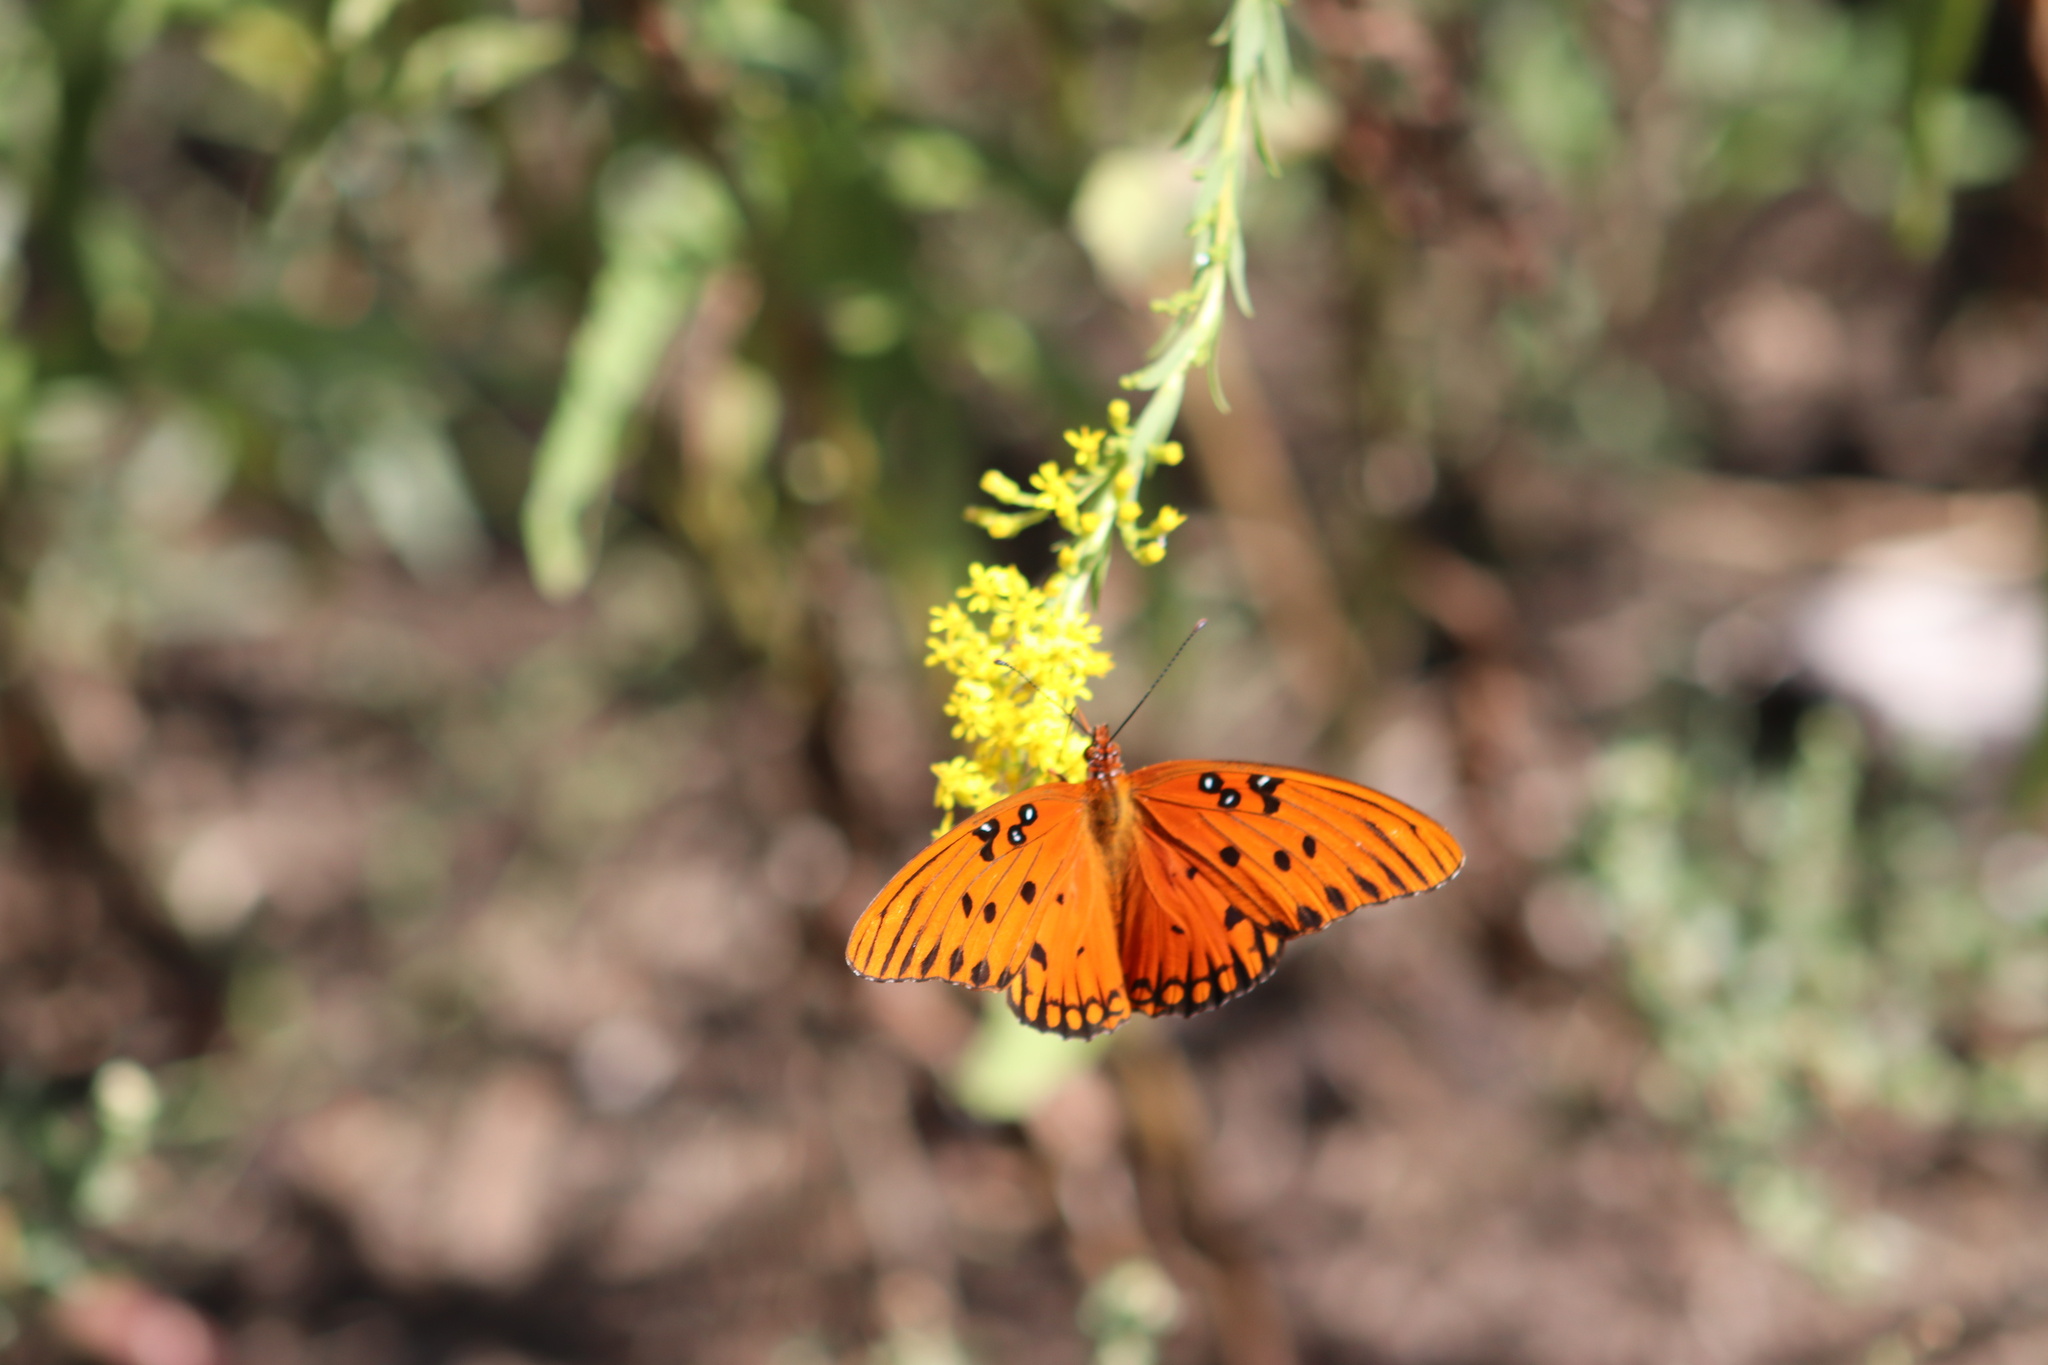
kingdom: Animalia
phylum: Arthropoda
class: Insecta
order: Lepidoptera
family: Nymphalidae
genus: Dione
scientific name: Dione vanillae
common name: Gulf fritillary
